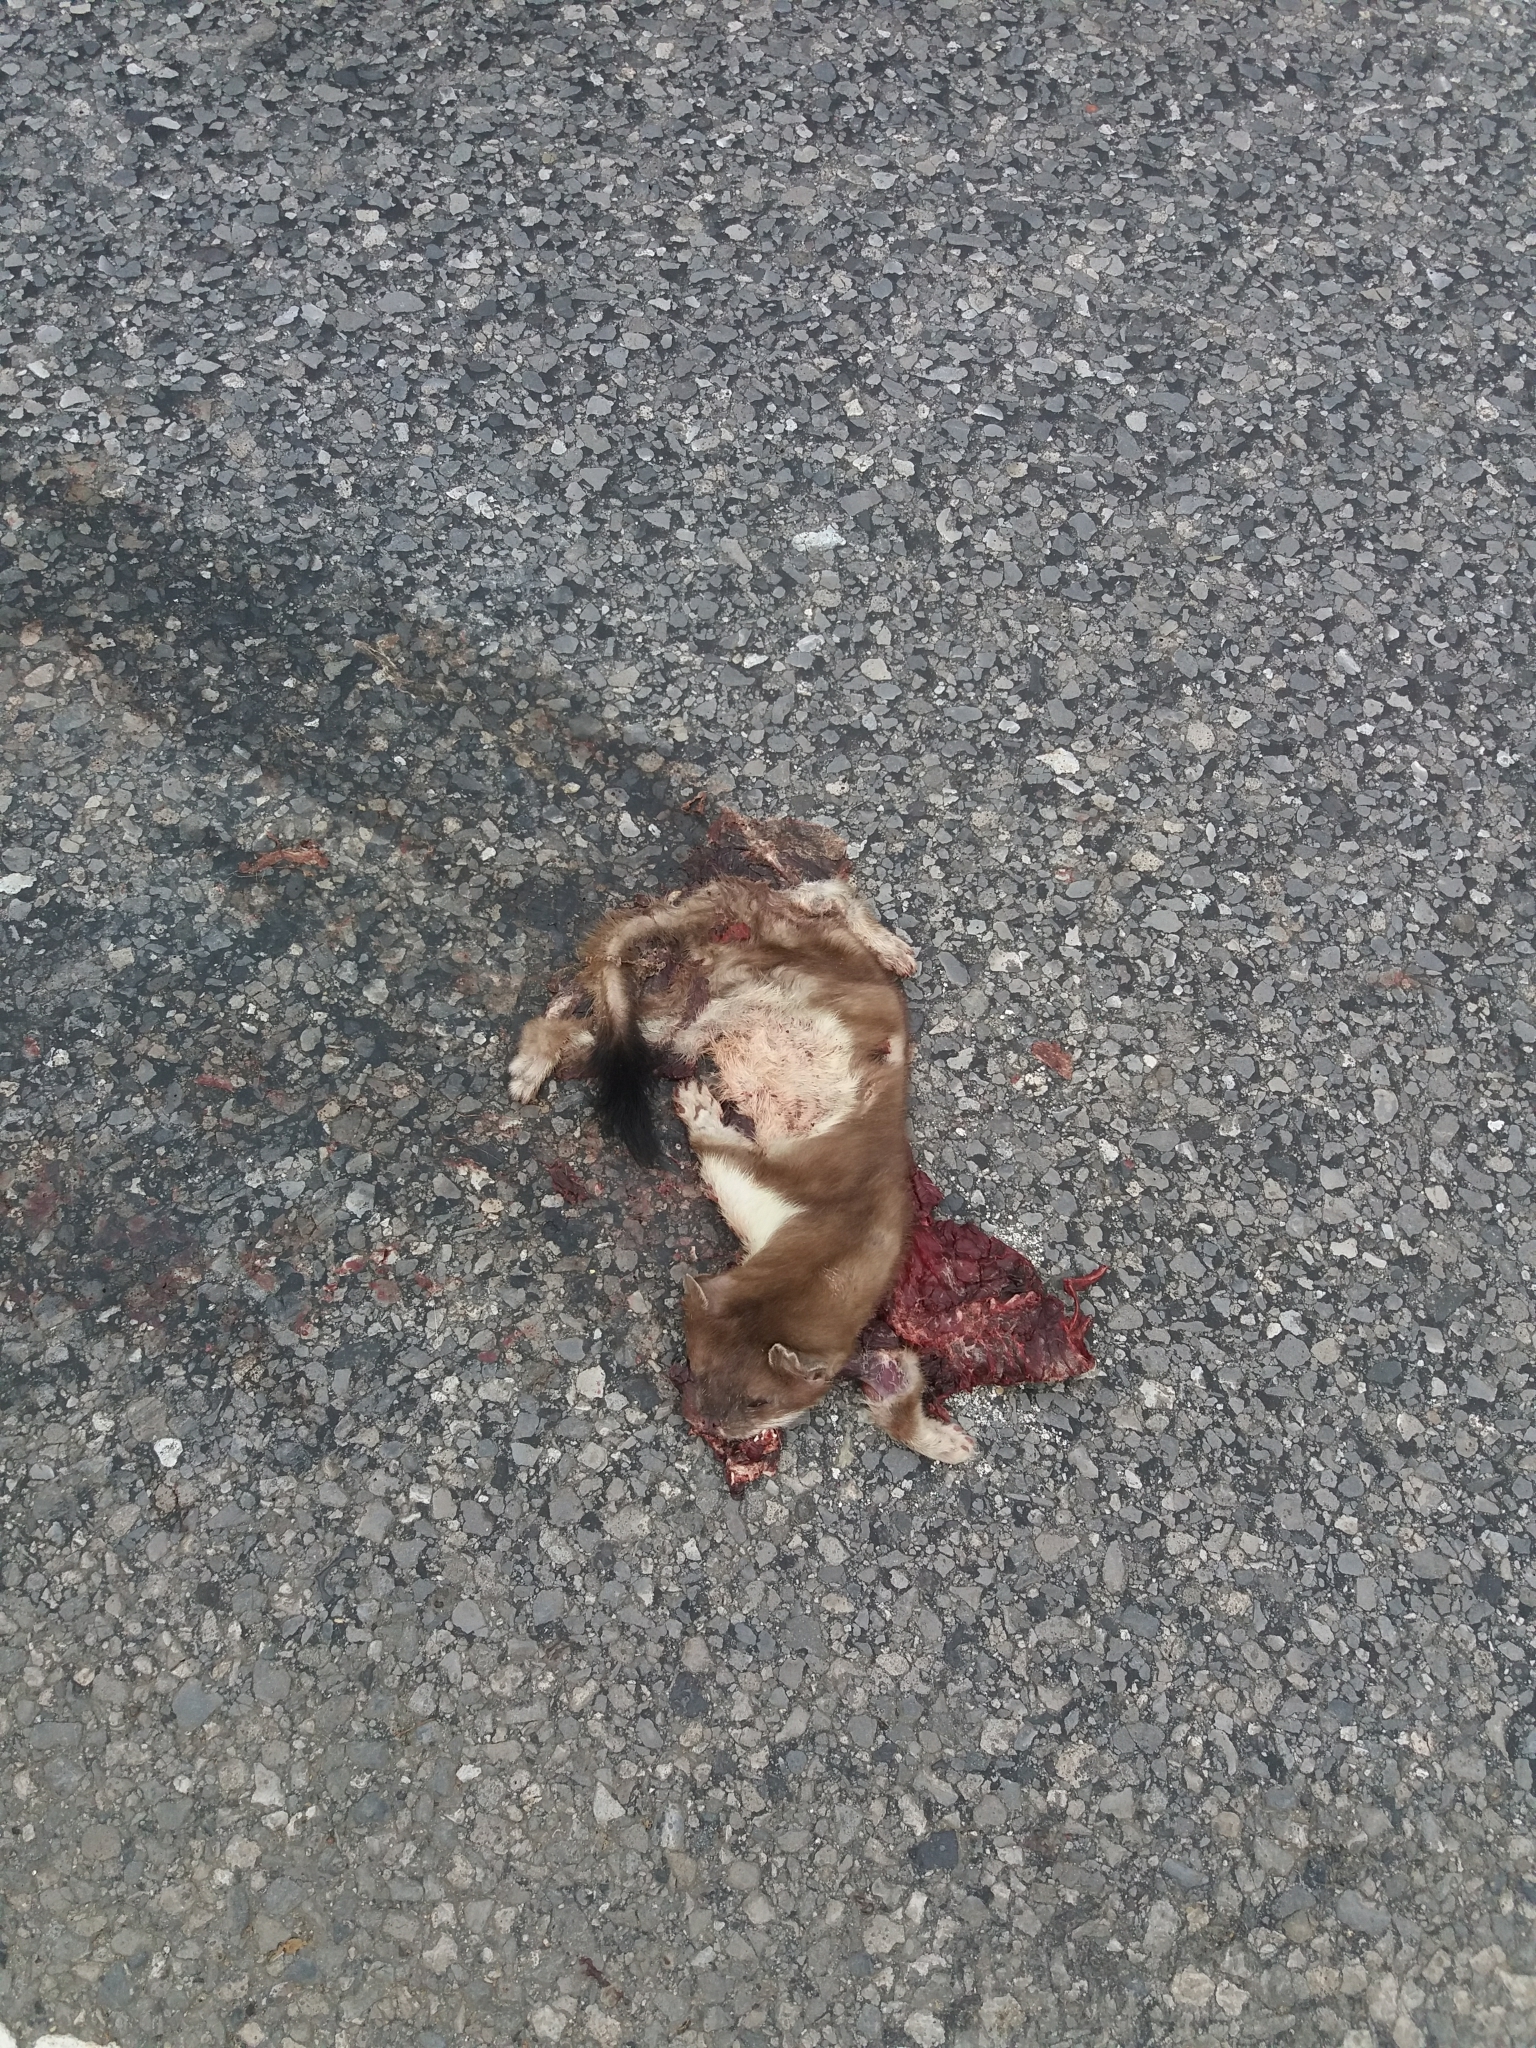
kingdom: Animalia
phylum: Chordata
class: Mammalia
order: Carnivora
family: Mustelidae
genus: Mustela
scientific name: Mustela erminea
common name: Stoat
